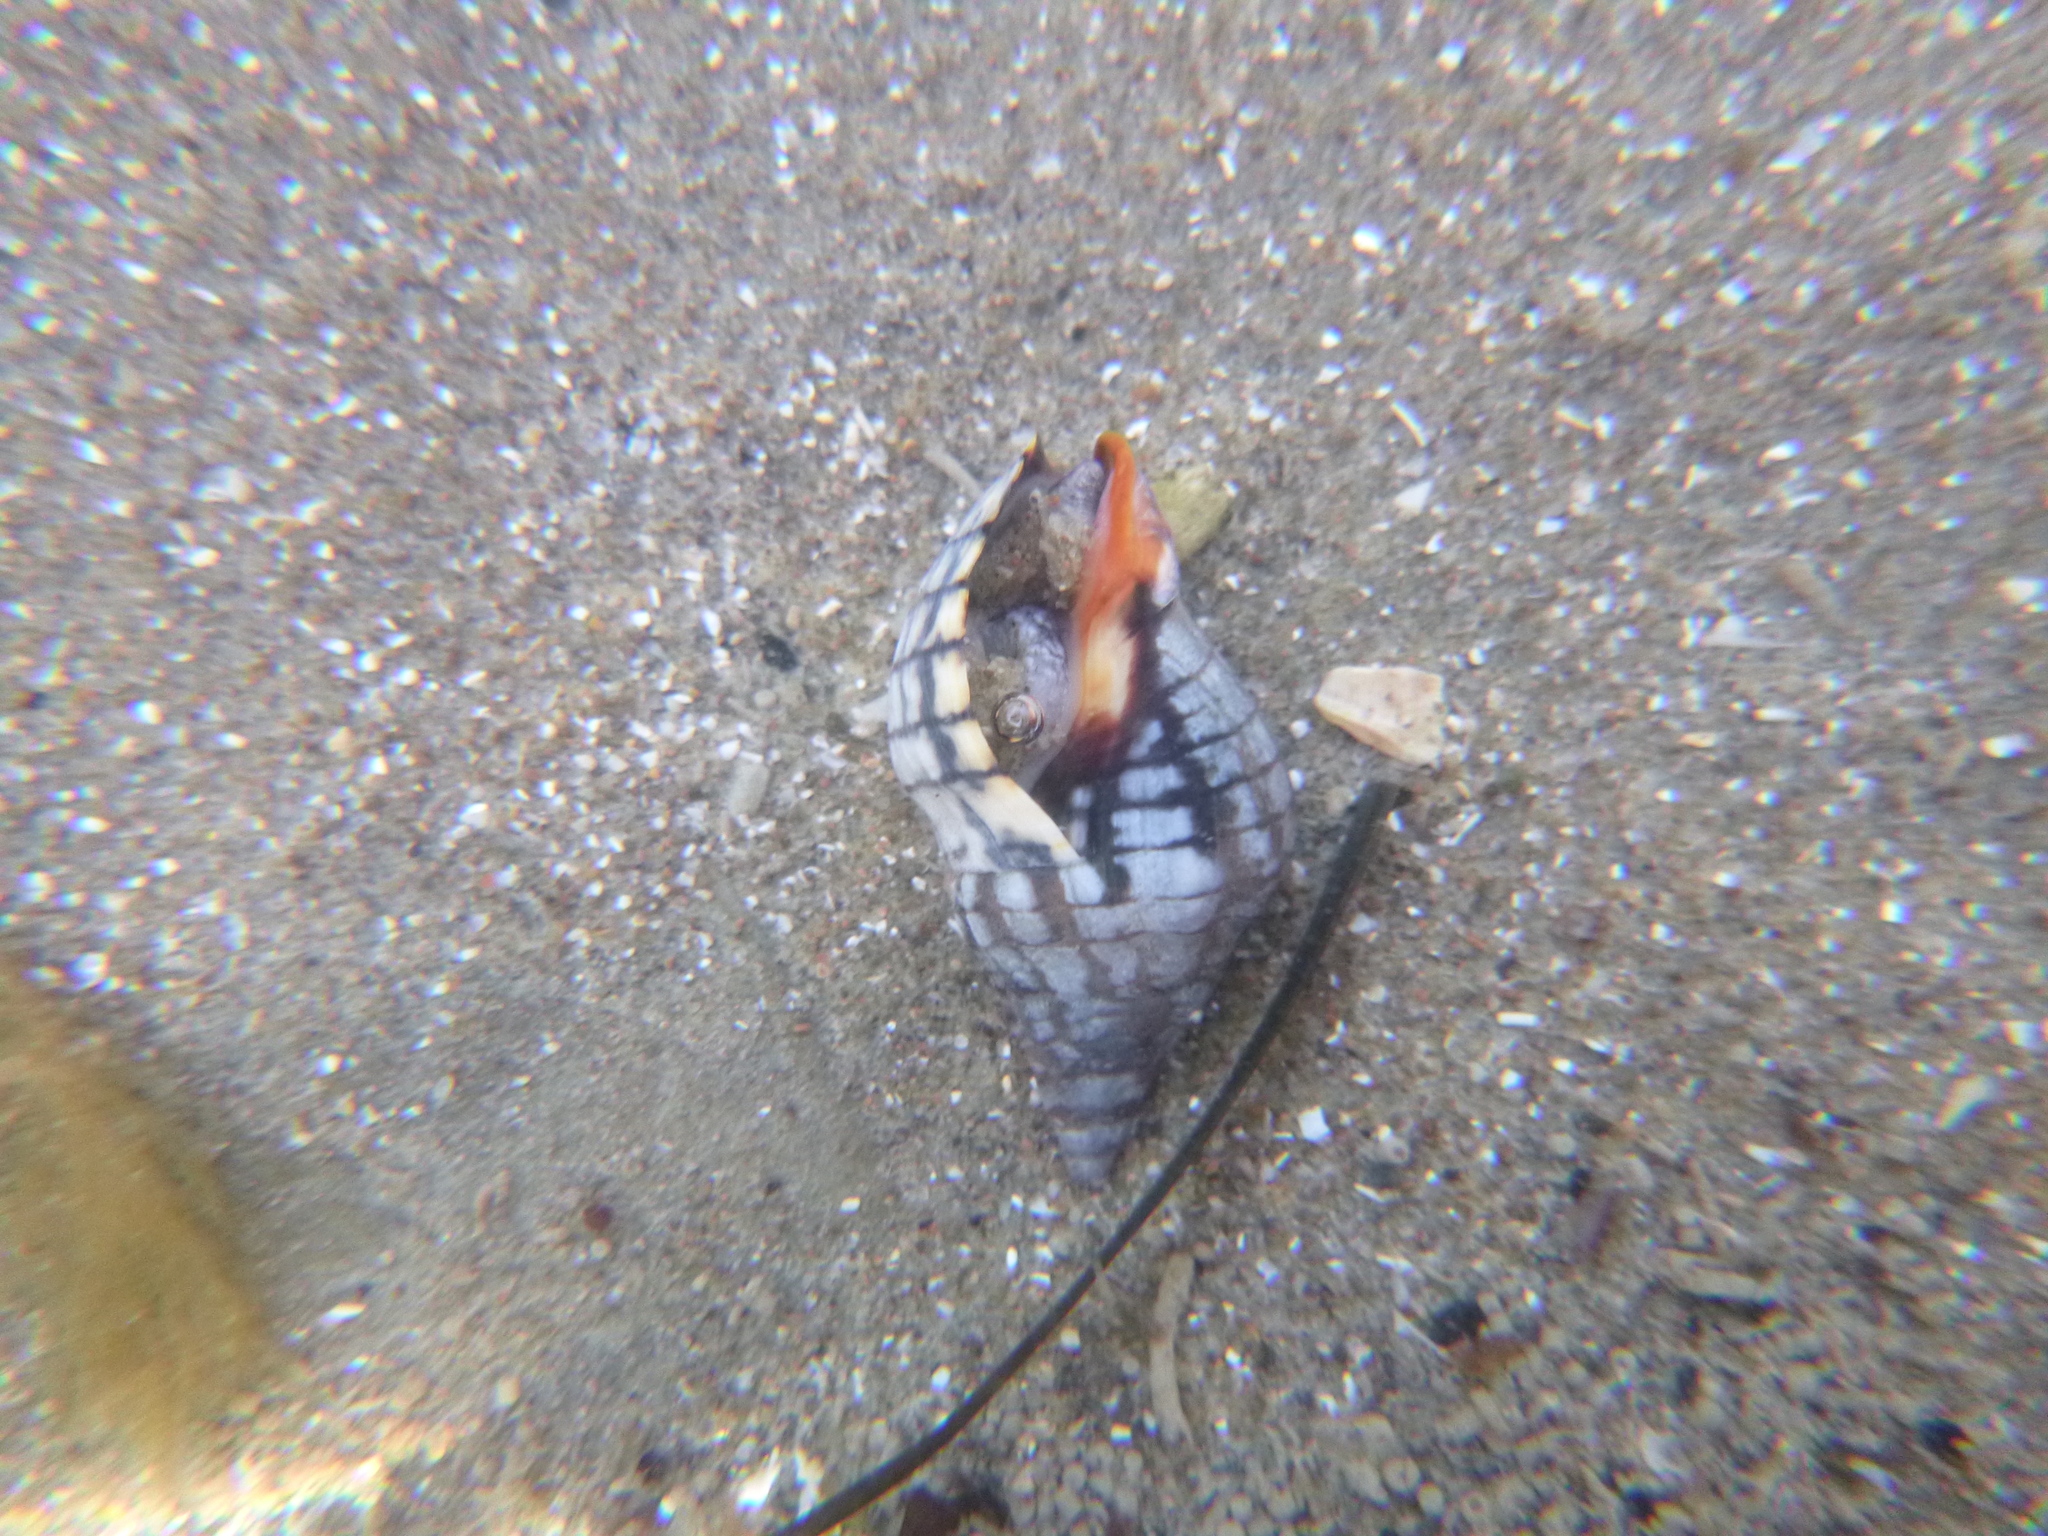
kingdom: Animalia
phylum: Mollusca
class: Gastropoda
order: Neogastropoda
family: Cominellidae
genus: Cominella
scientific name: Cominella virgata
